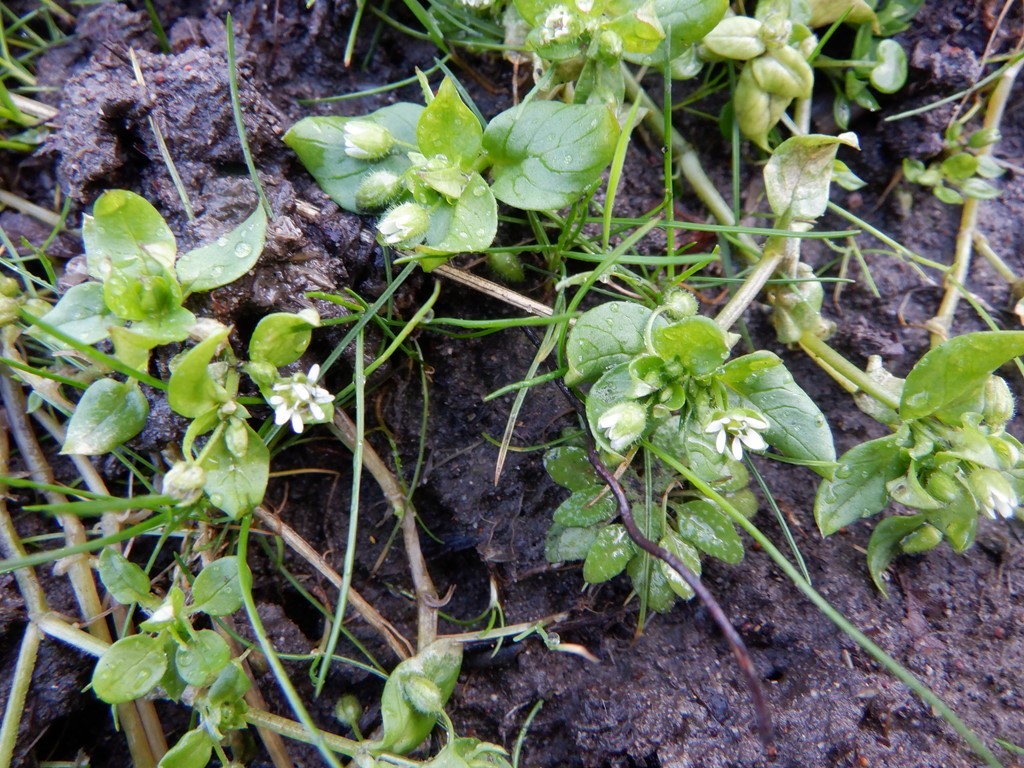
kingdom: Plantae
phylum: Tracheophyta
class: Magnoliopsida
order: Caryophyllales
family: Caryophyllaceae
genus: Stellaria
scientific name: Stellaria media
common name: Common chickweed
